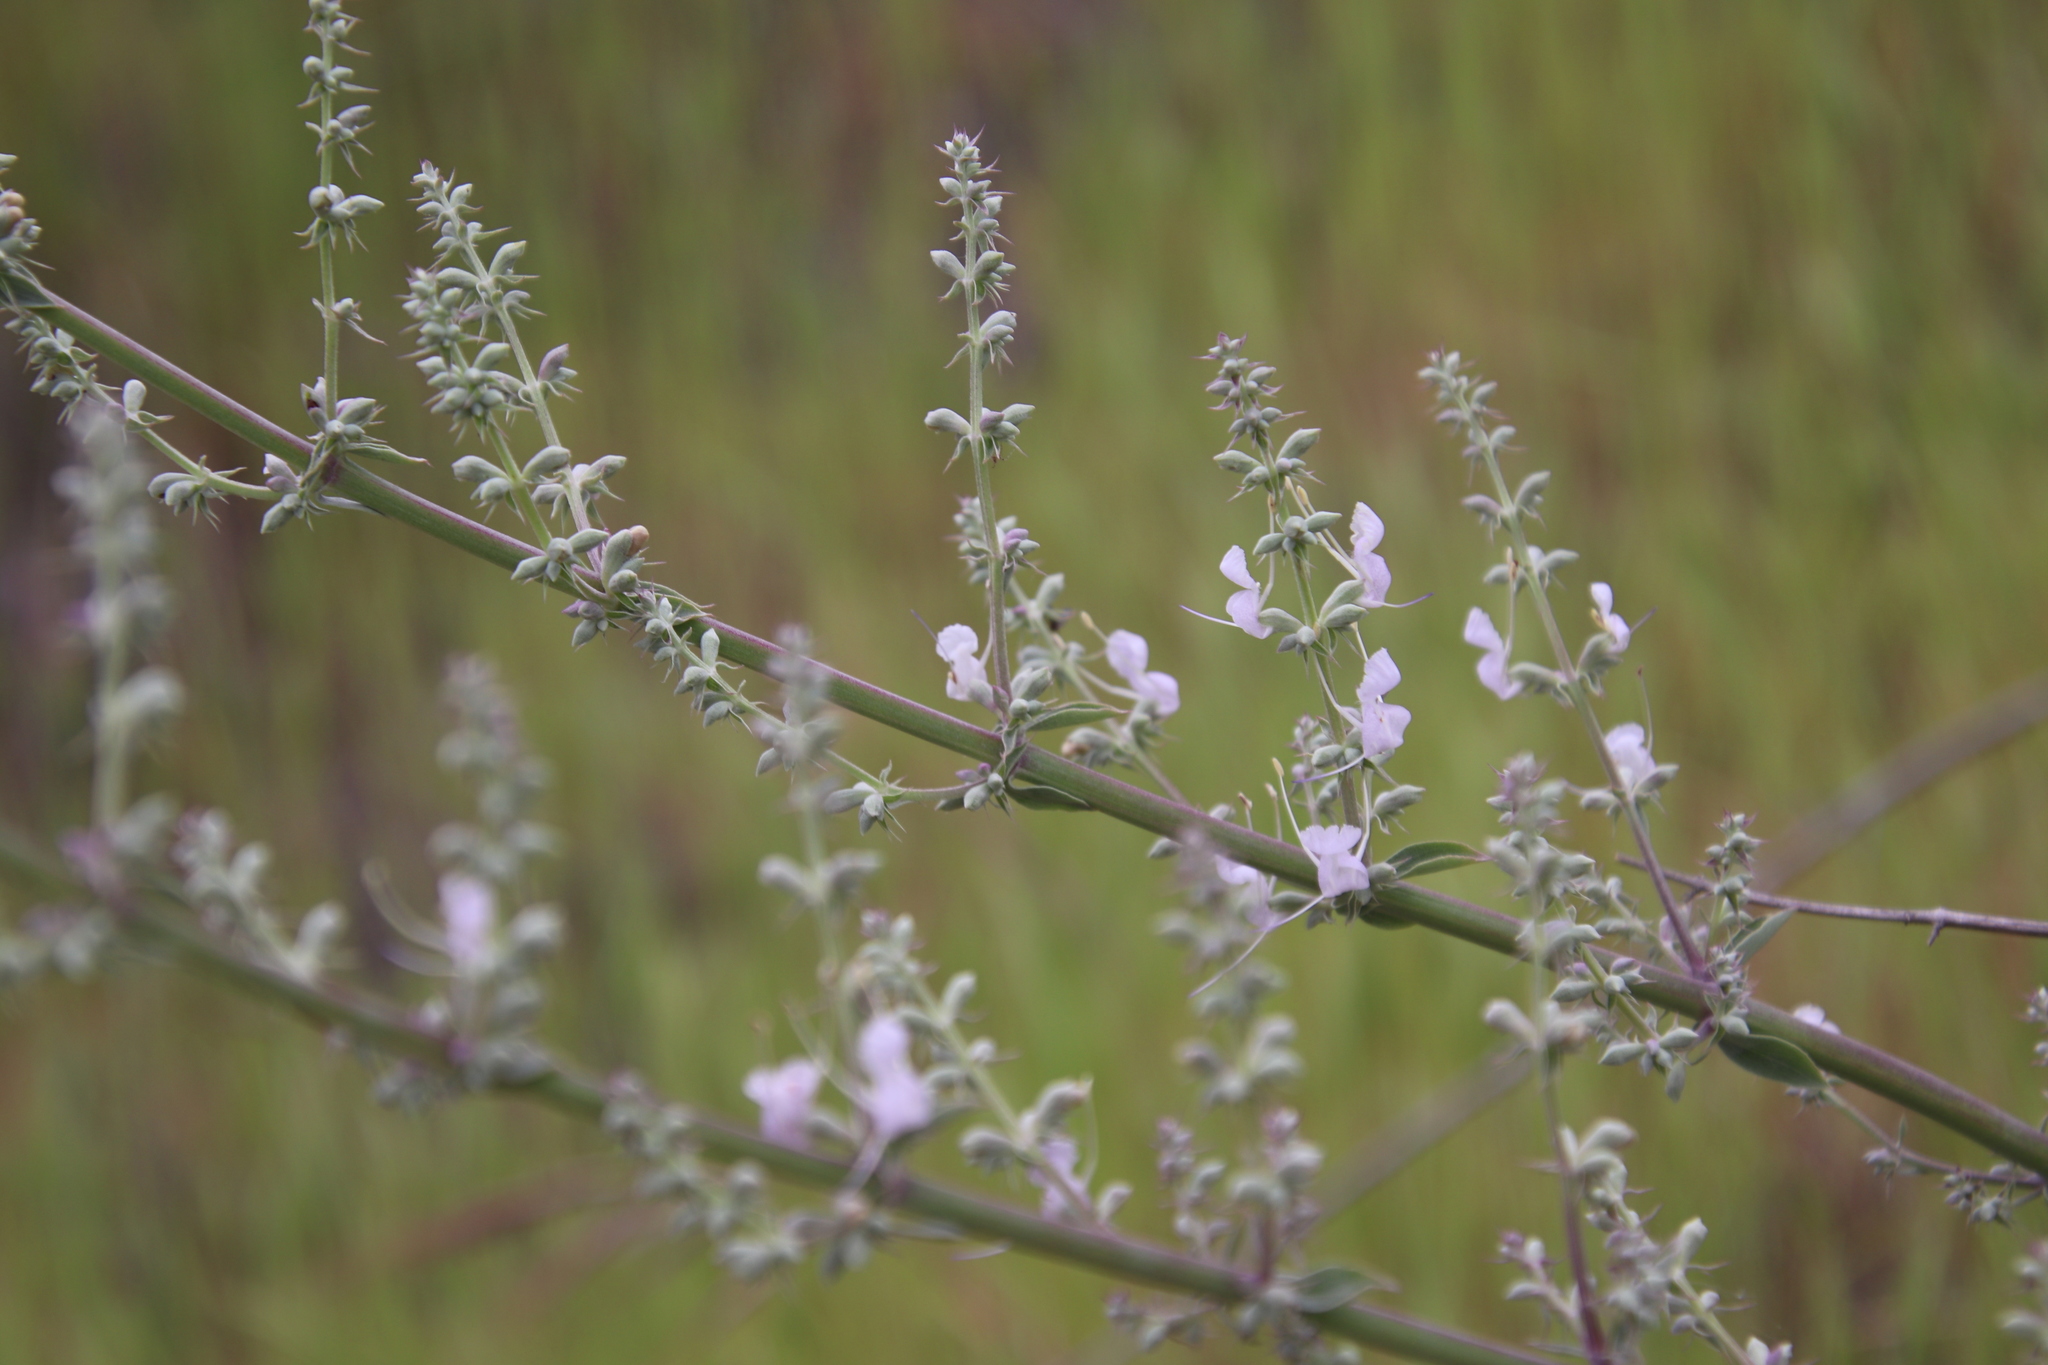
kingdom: Plantae
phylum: Tracheophyta
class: Magnoliopsida
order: Lamiales
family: Lamiaceae
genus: Salvia
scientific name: Salvia apiana
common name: White sage
